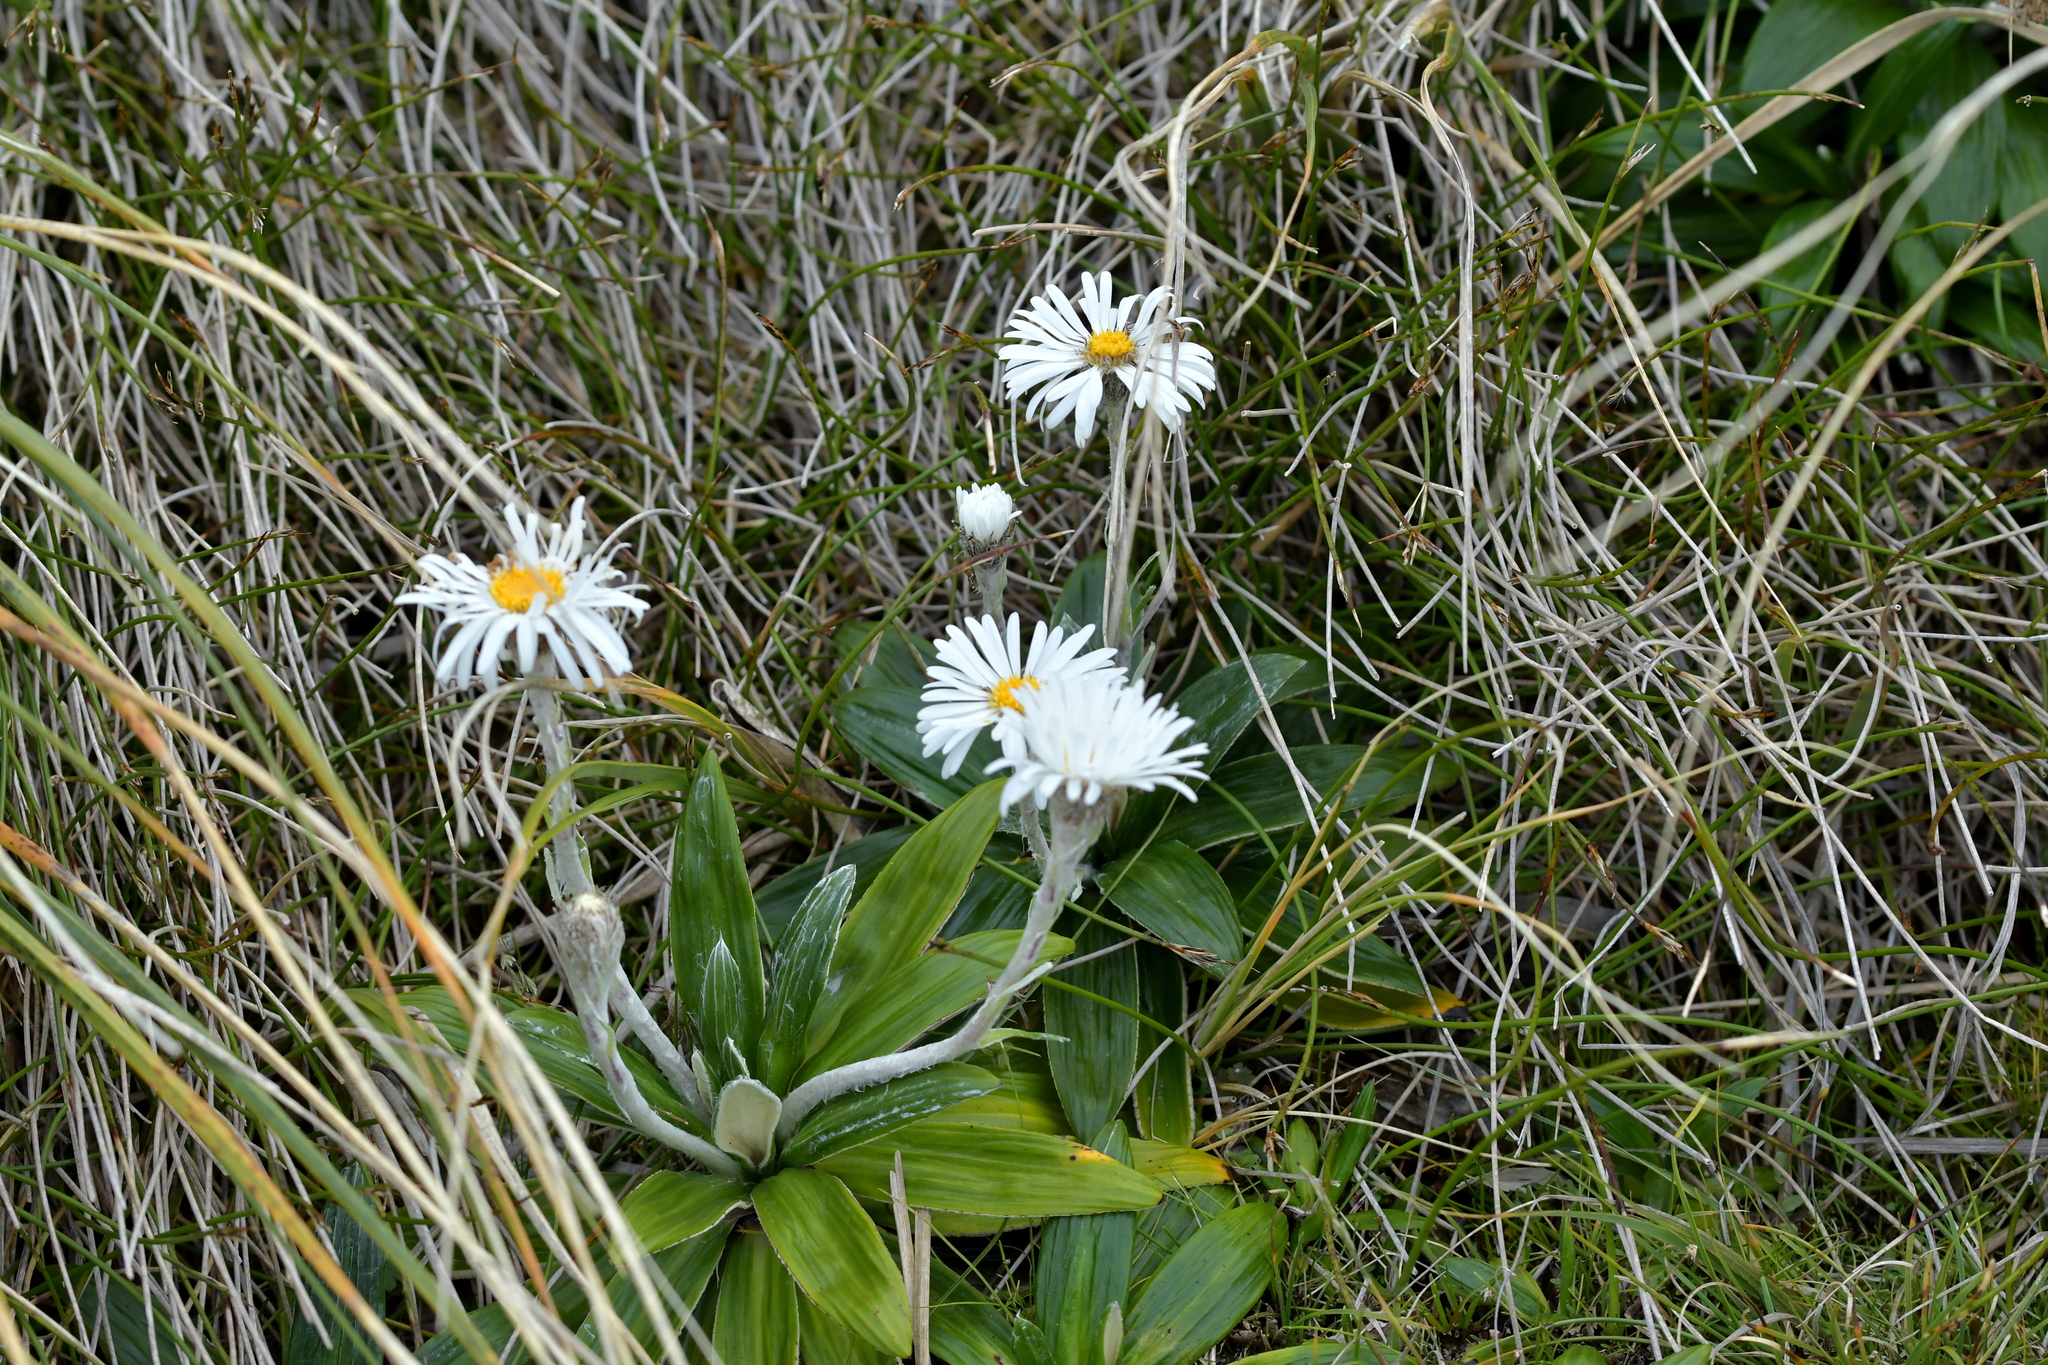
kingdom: Plantae
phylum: Tracheophyta
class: Magnoliopsida
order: Asterales
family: Asteraceae
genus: Celmisia
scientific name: Celmisia spectabilis
